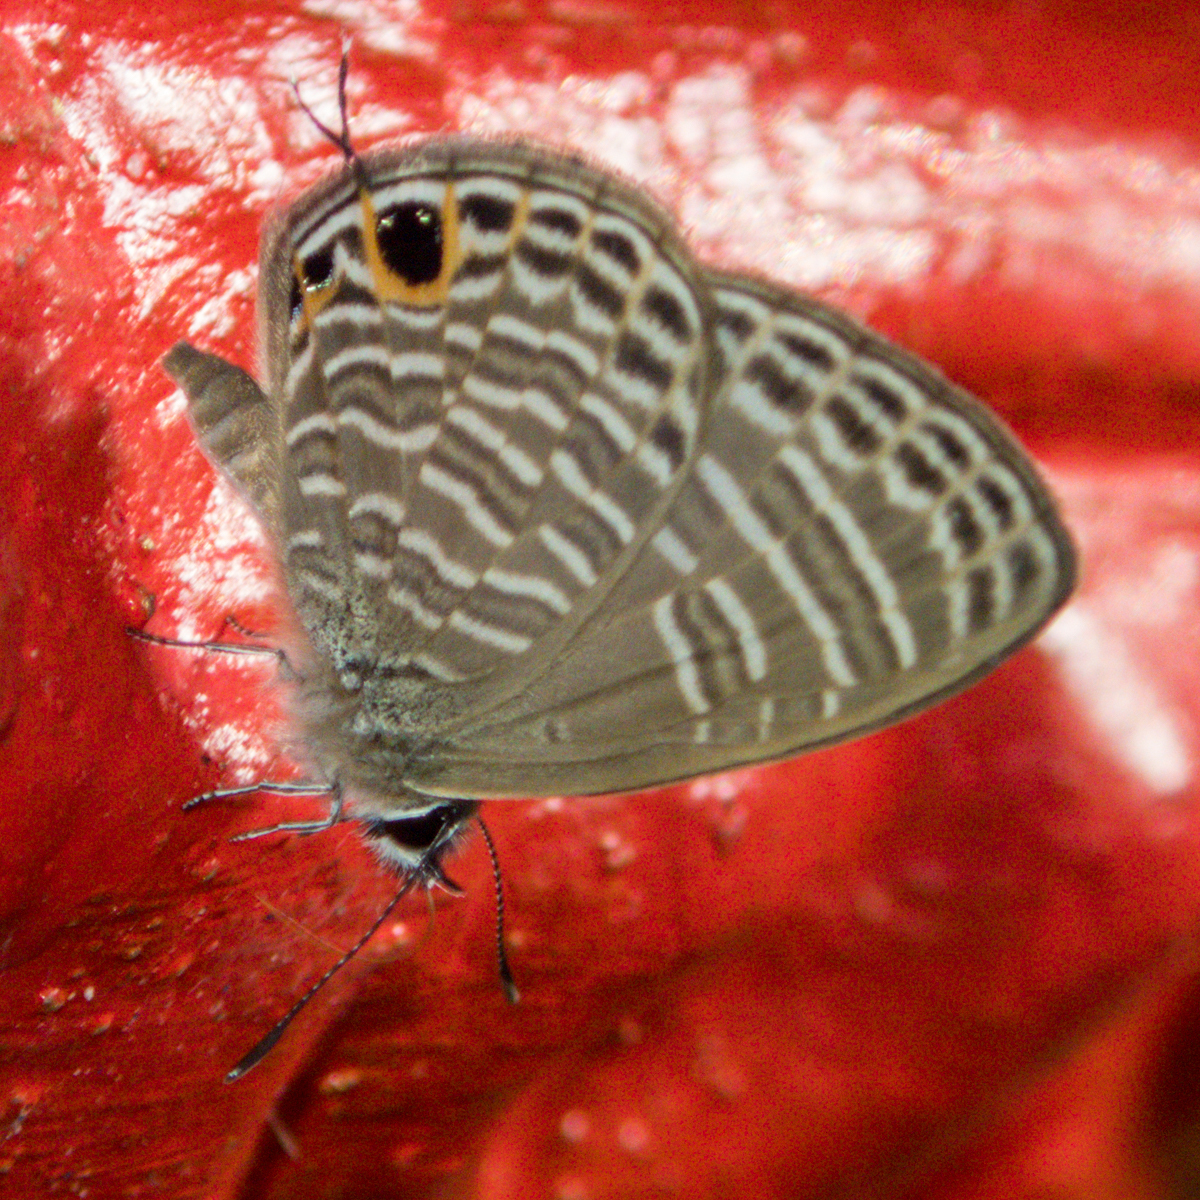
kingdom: Animalia
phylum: Arthropoda
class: Insecta
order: Lepidoptera
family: Lycaenidae
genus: Nacaduba
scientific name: Nacaduba pavana
